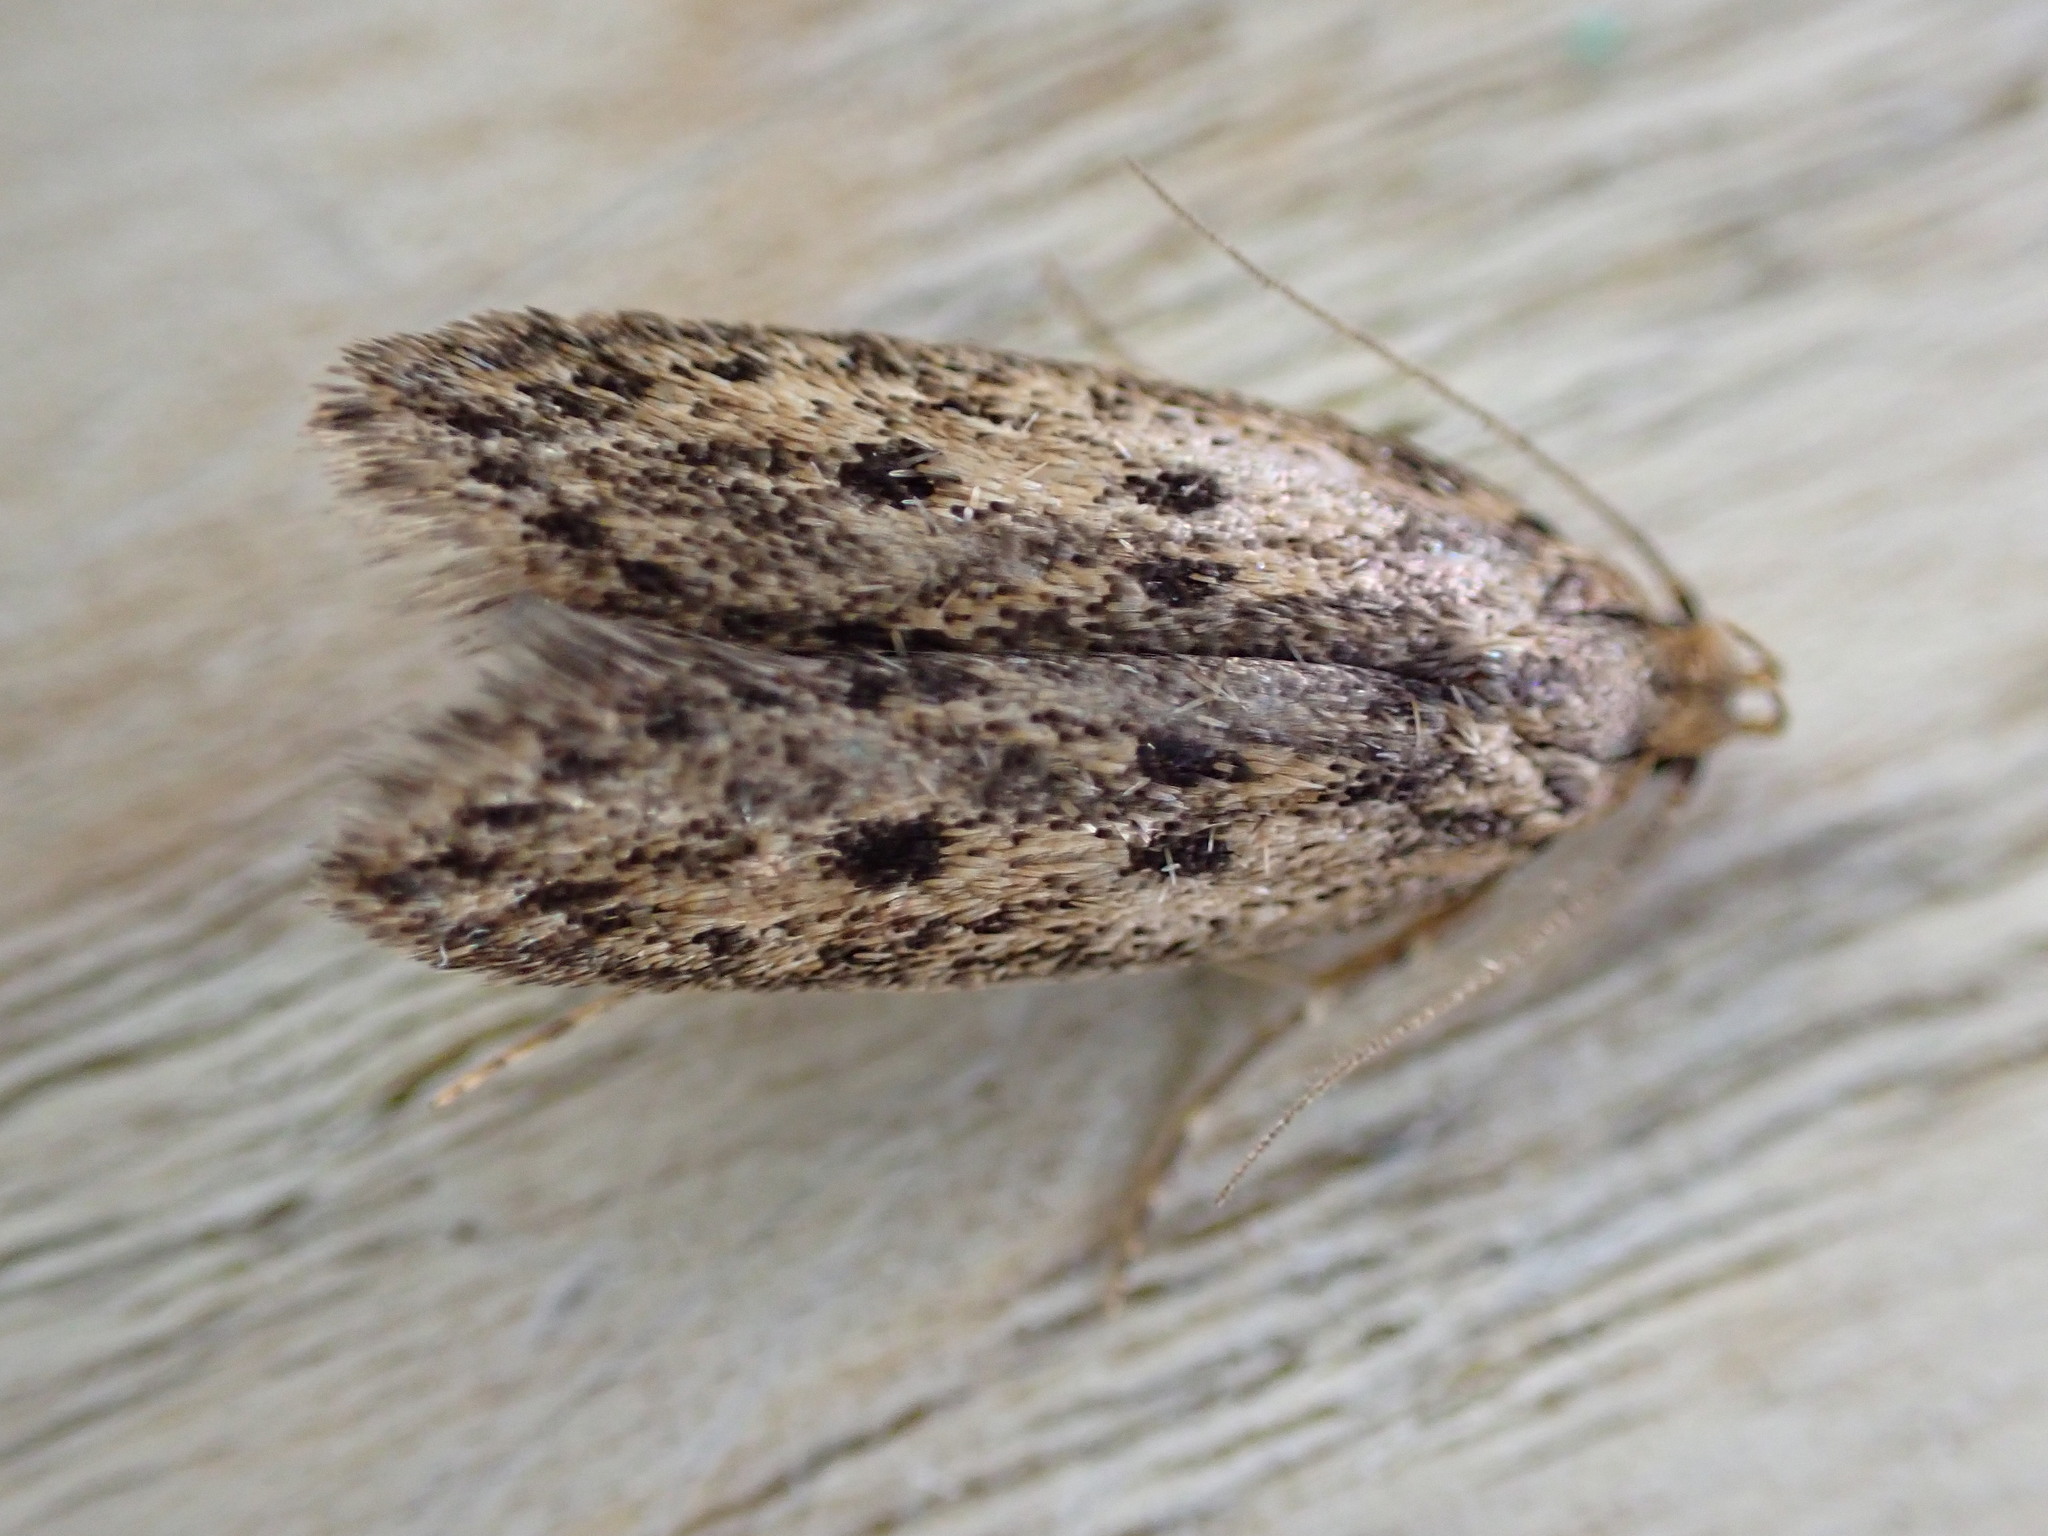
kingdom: Animalia
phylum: Arthropoda
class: Insecta
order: Lepidoptera
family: Oecophoridae
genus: Hofmannophila
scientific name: Hofmannophila pseudospretella
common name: Brown house moth
